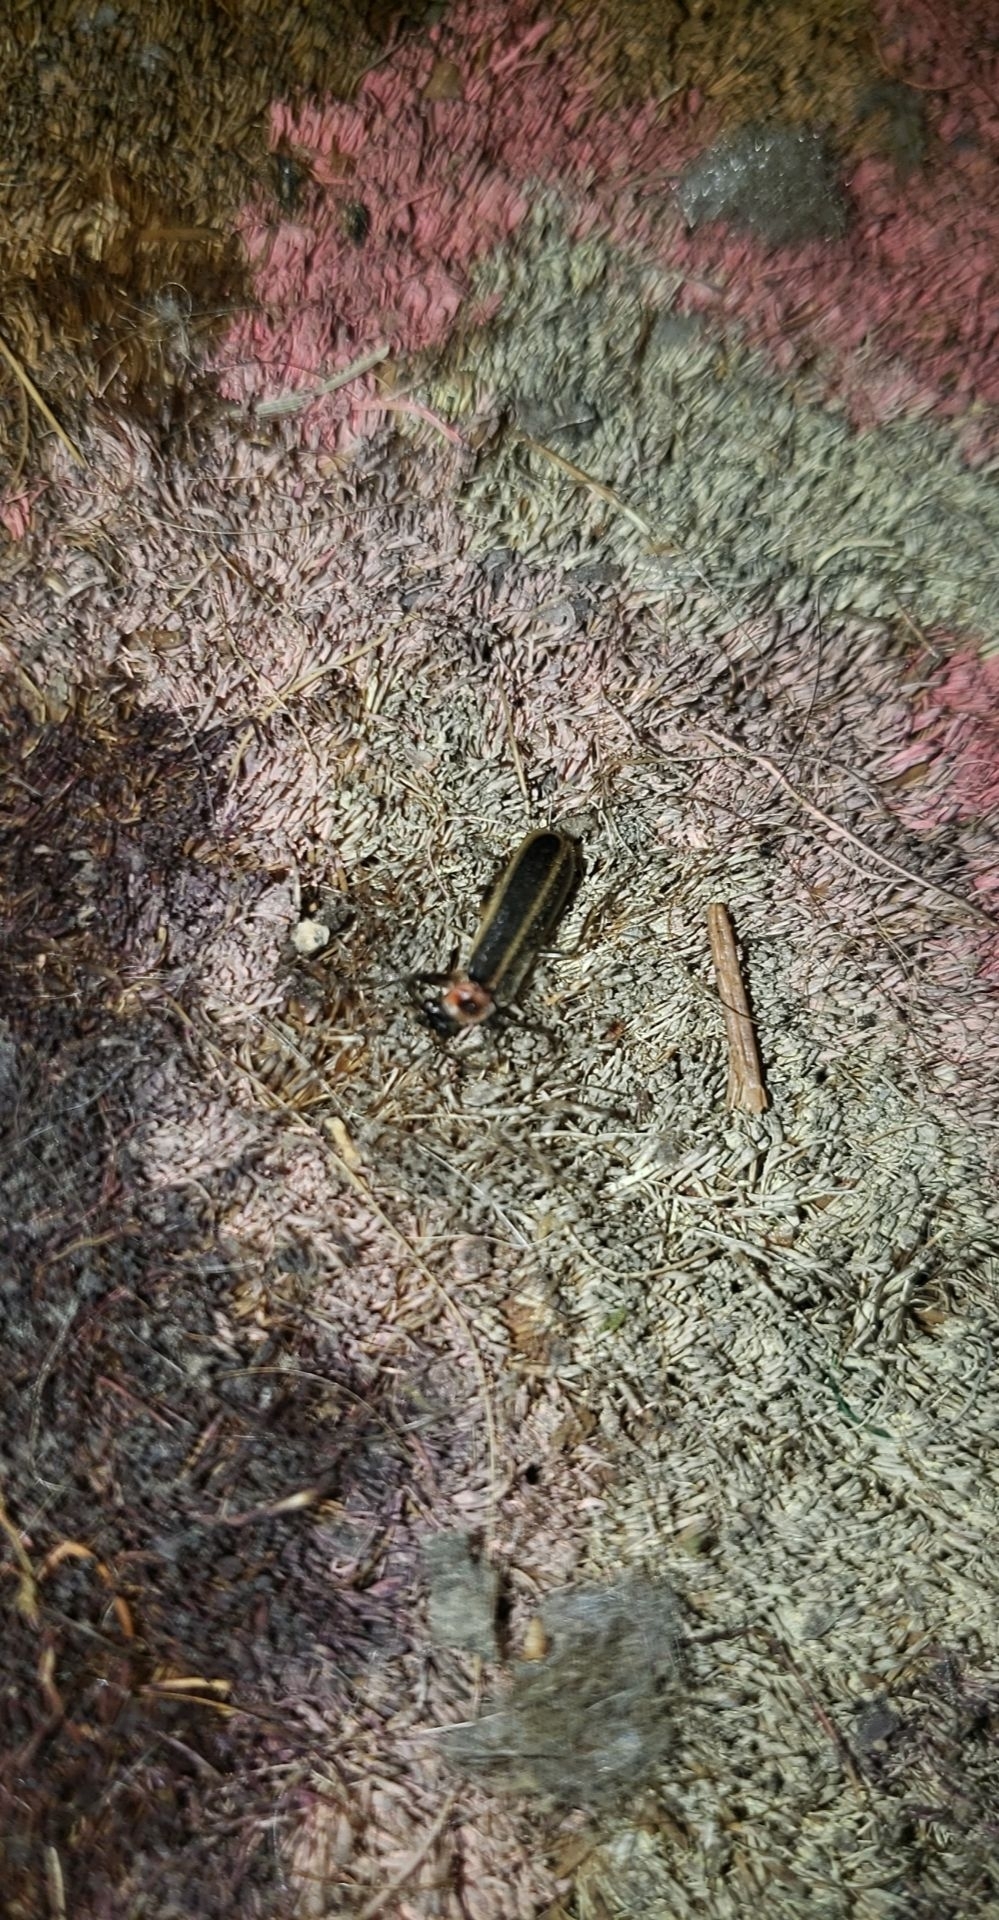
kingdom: Animalia
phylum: Arthropoda
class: Insecta
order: Coleoptera
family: Cantharidae
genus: Podabrus
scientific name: Podabrus appendiculatus
